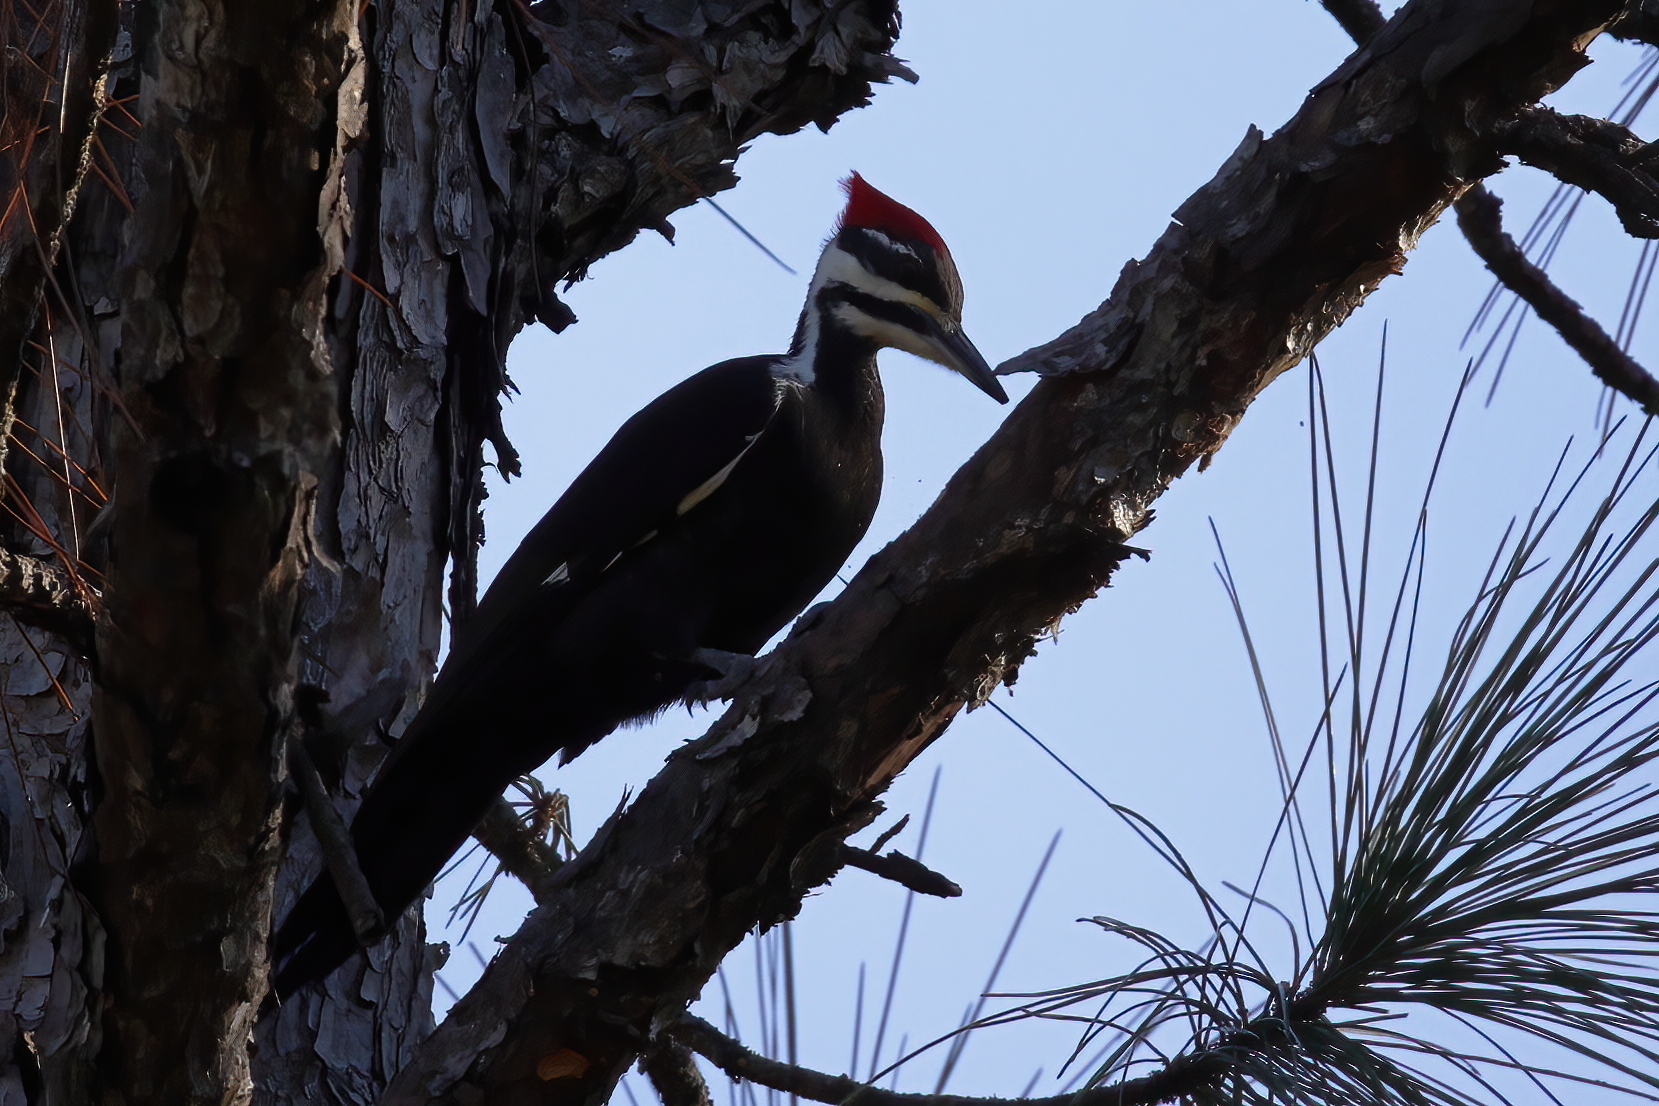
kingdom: Animalia
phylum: Chordata
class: Aves
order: Piciformes
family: Picidae
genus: Dryocopus
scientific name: Dryocopus pileatus
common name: Pileated woodpecker
